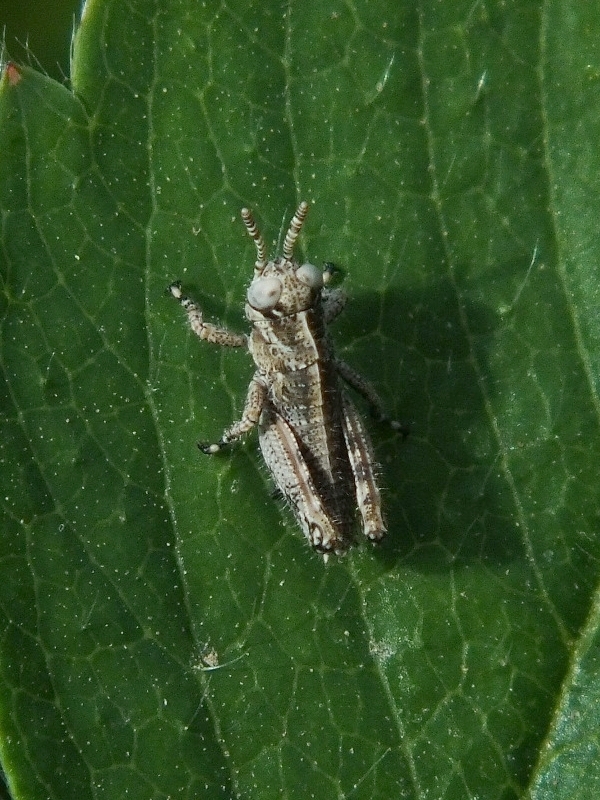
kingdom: Animalia
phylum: Arthropoda
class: Insecta
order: Orthoptera
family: Acrididae
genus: Podisma
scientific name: Podisma pedestris
